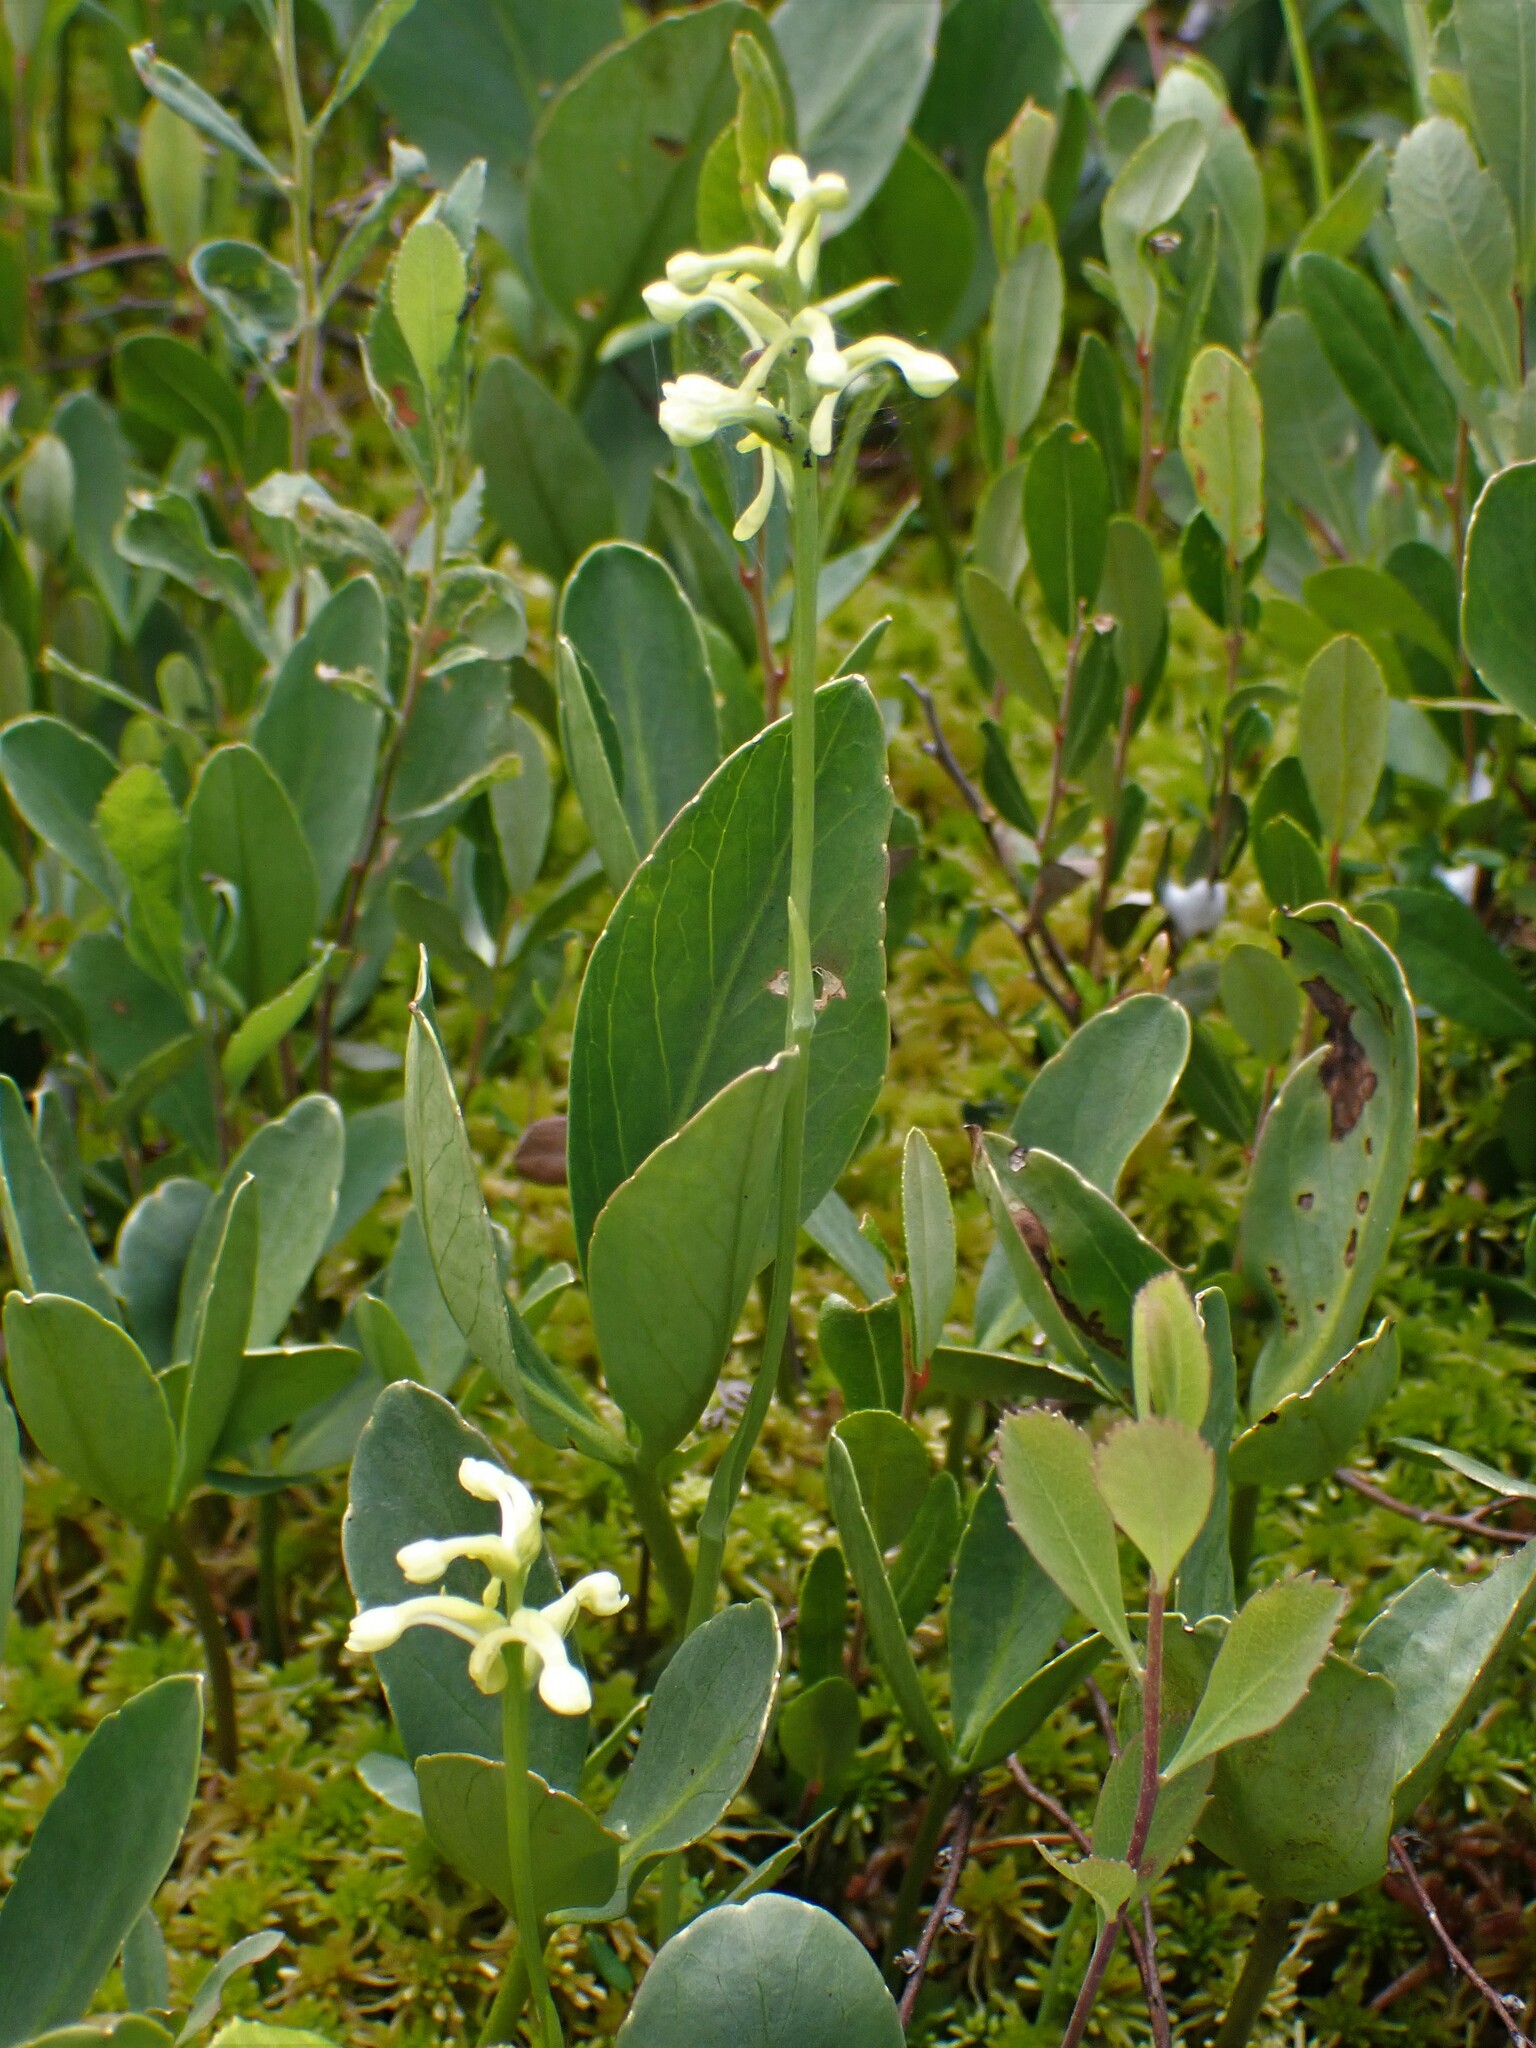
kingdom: Plantae
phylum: Tracheophyta
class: Liliopsida
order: Asparagales
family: Orchidaceae
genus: Platanthera
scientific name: Platanthera clavellata
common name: Club-spur orchid
